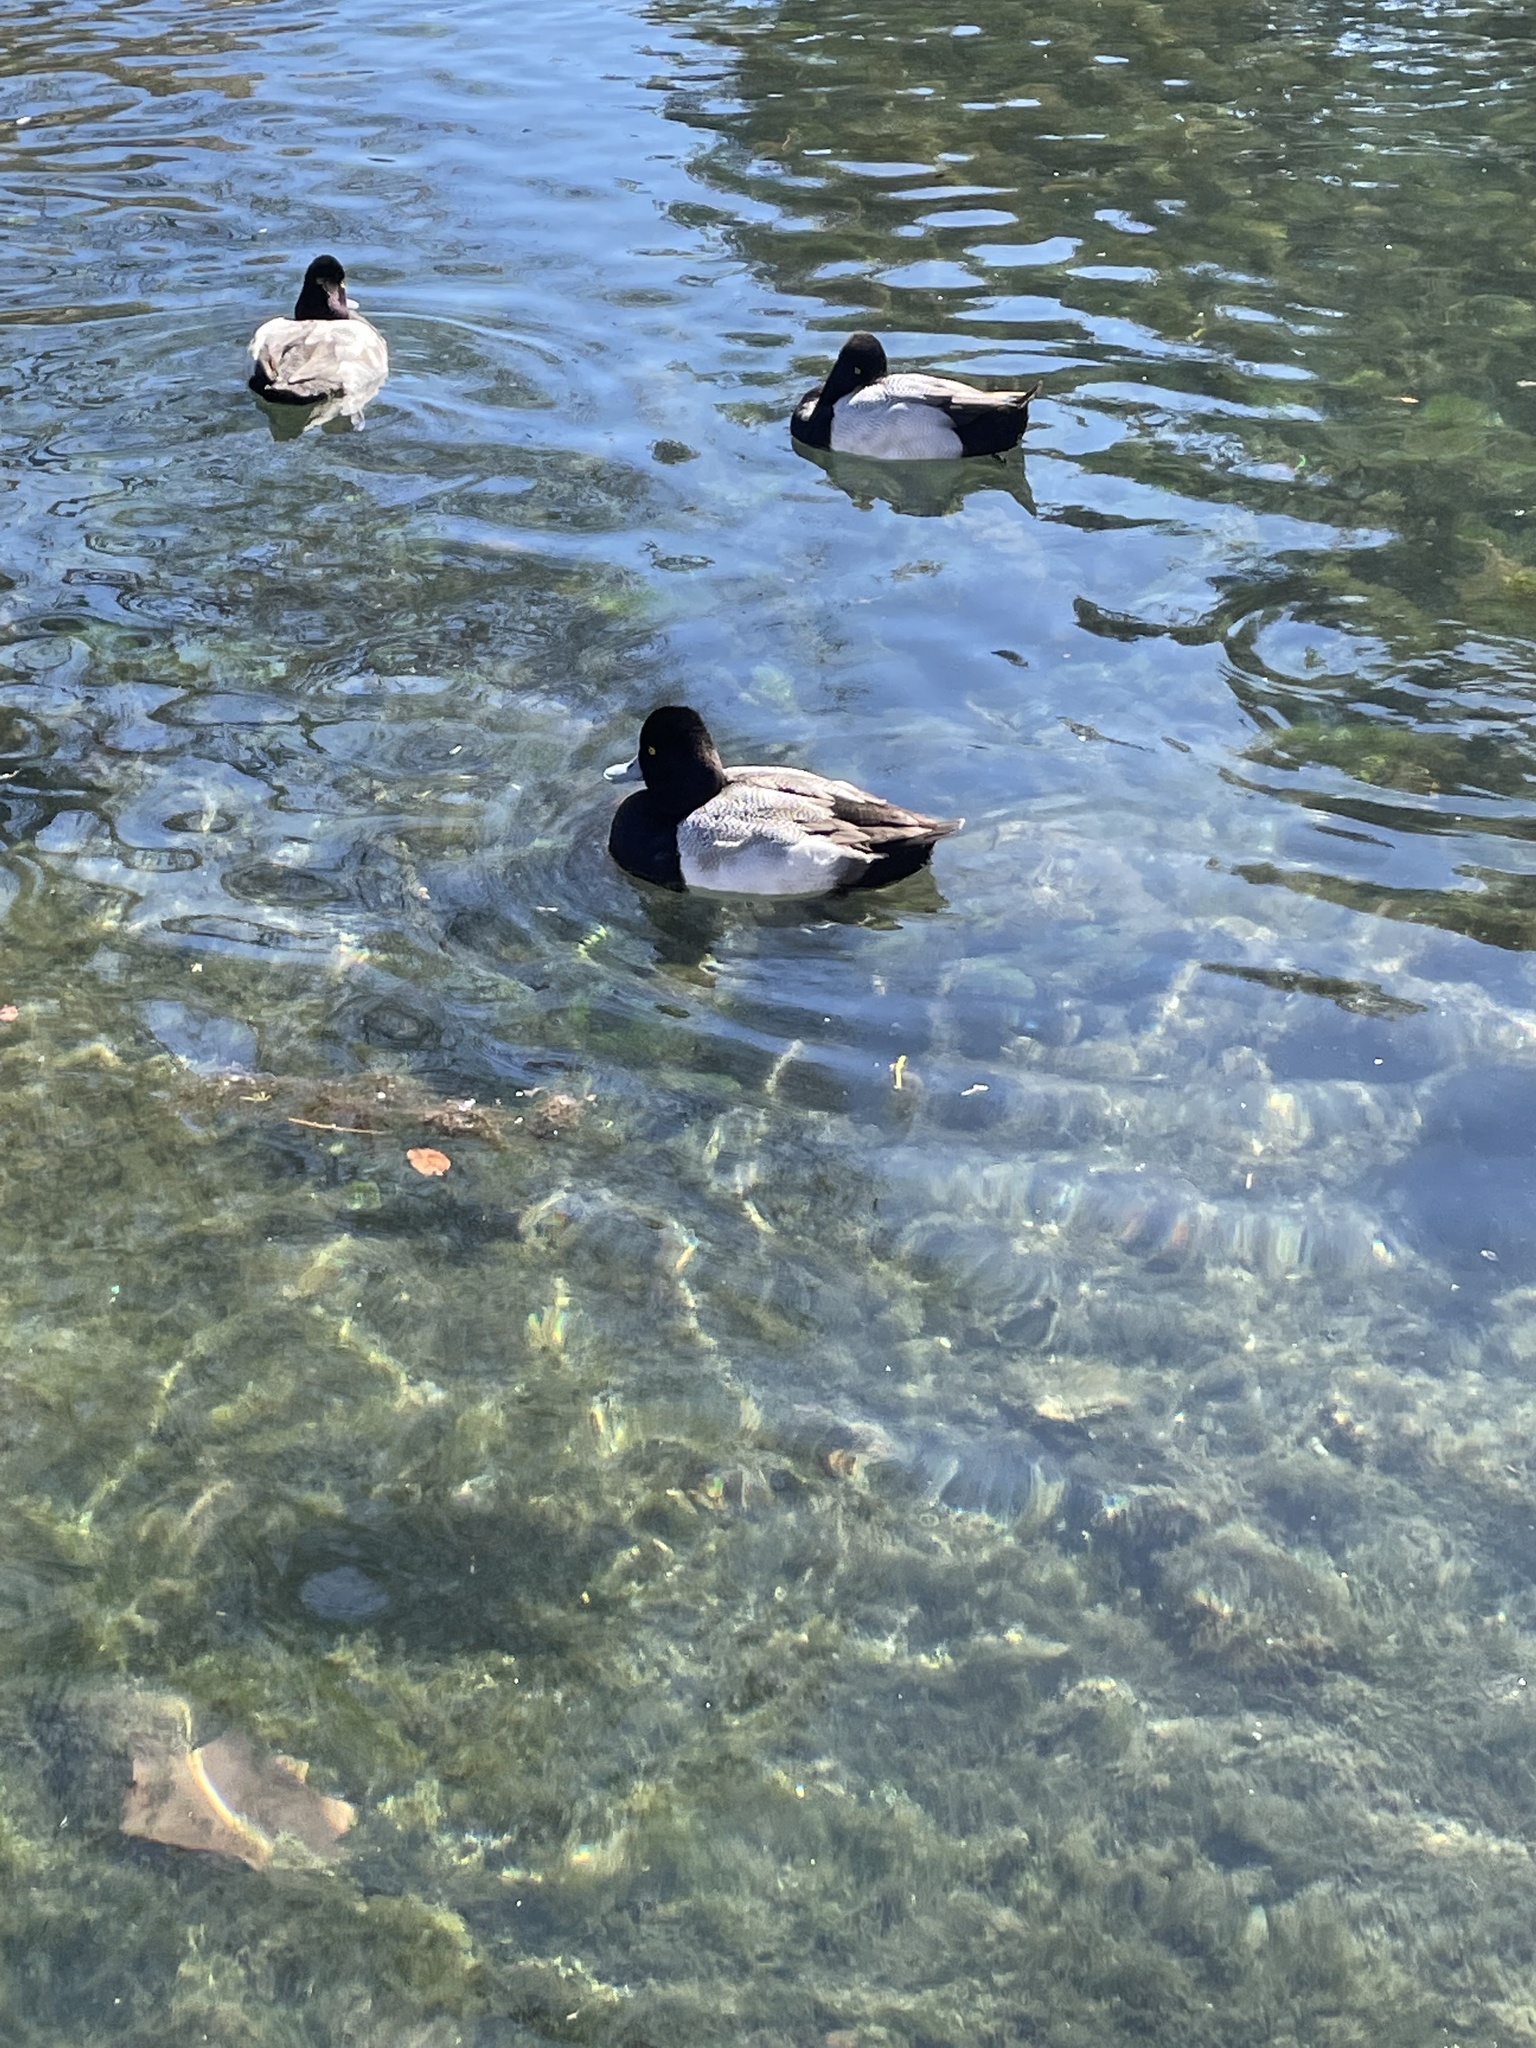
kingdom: Animalia
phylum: Chordata
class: Aves
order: Anseriformes
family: Anatidae
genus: Aythya
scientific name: Aythya affinis
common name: Lesser scaup
